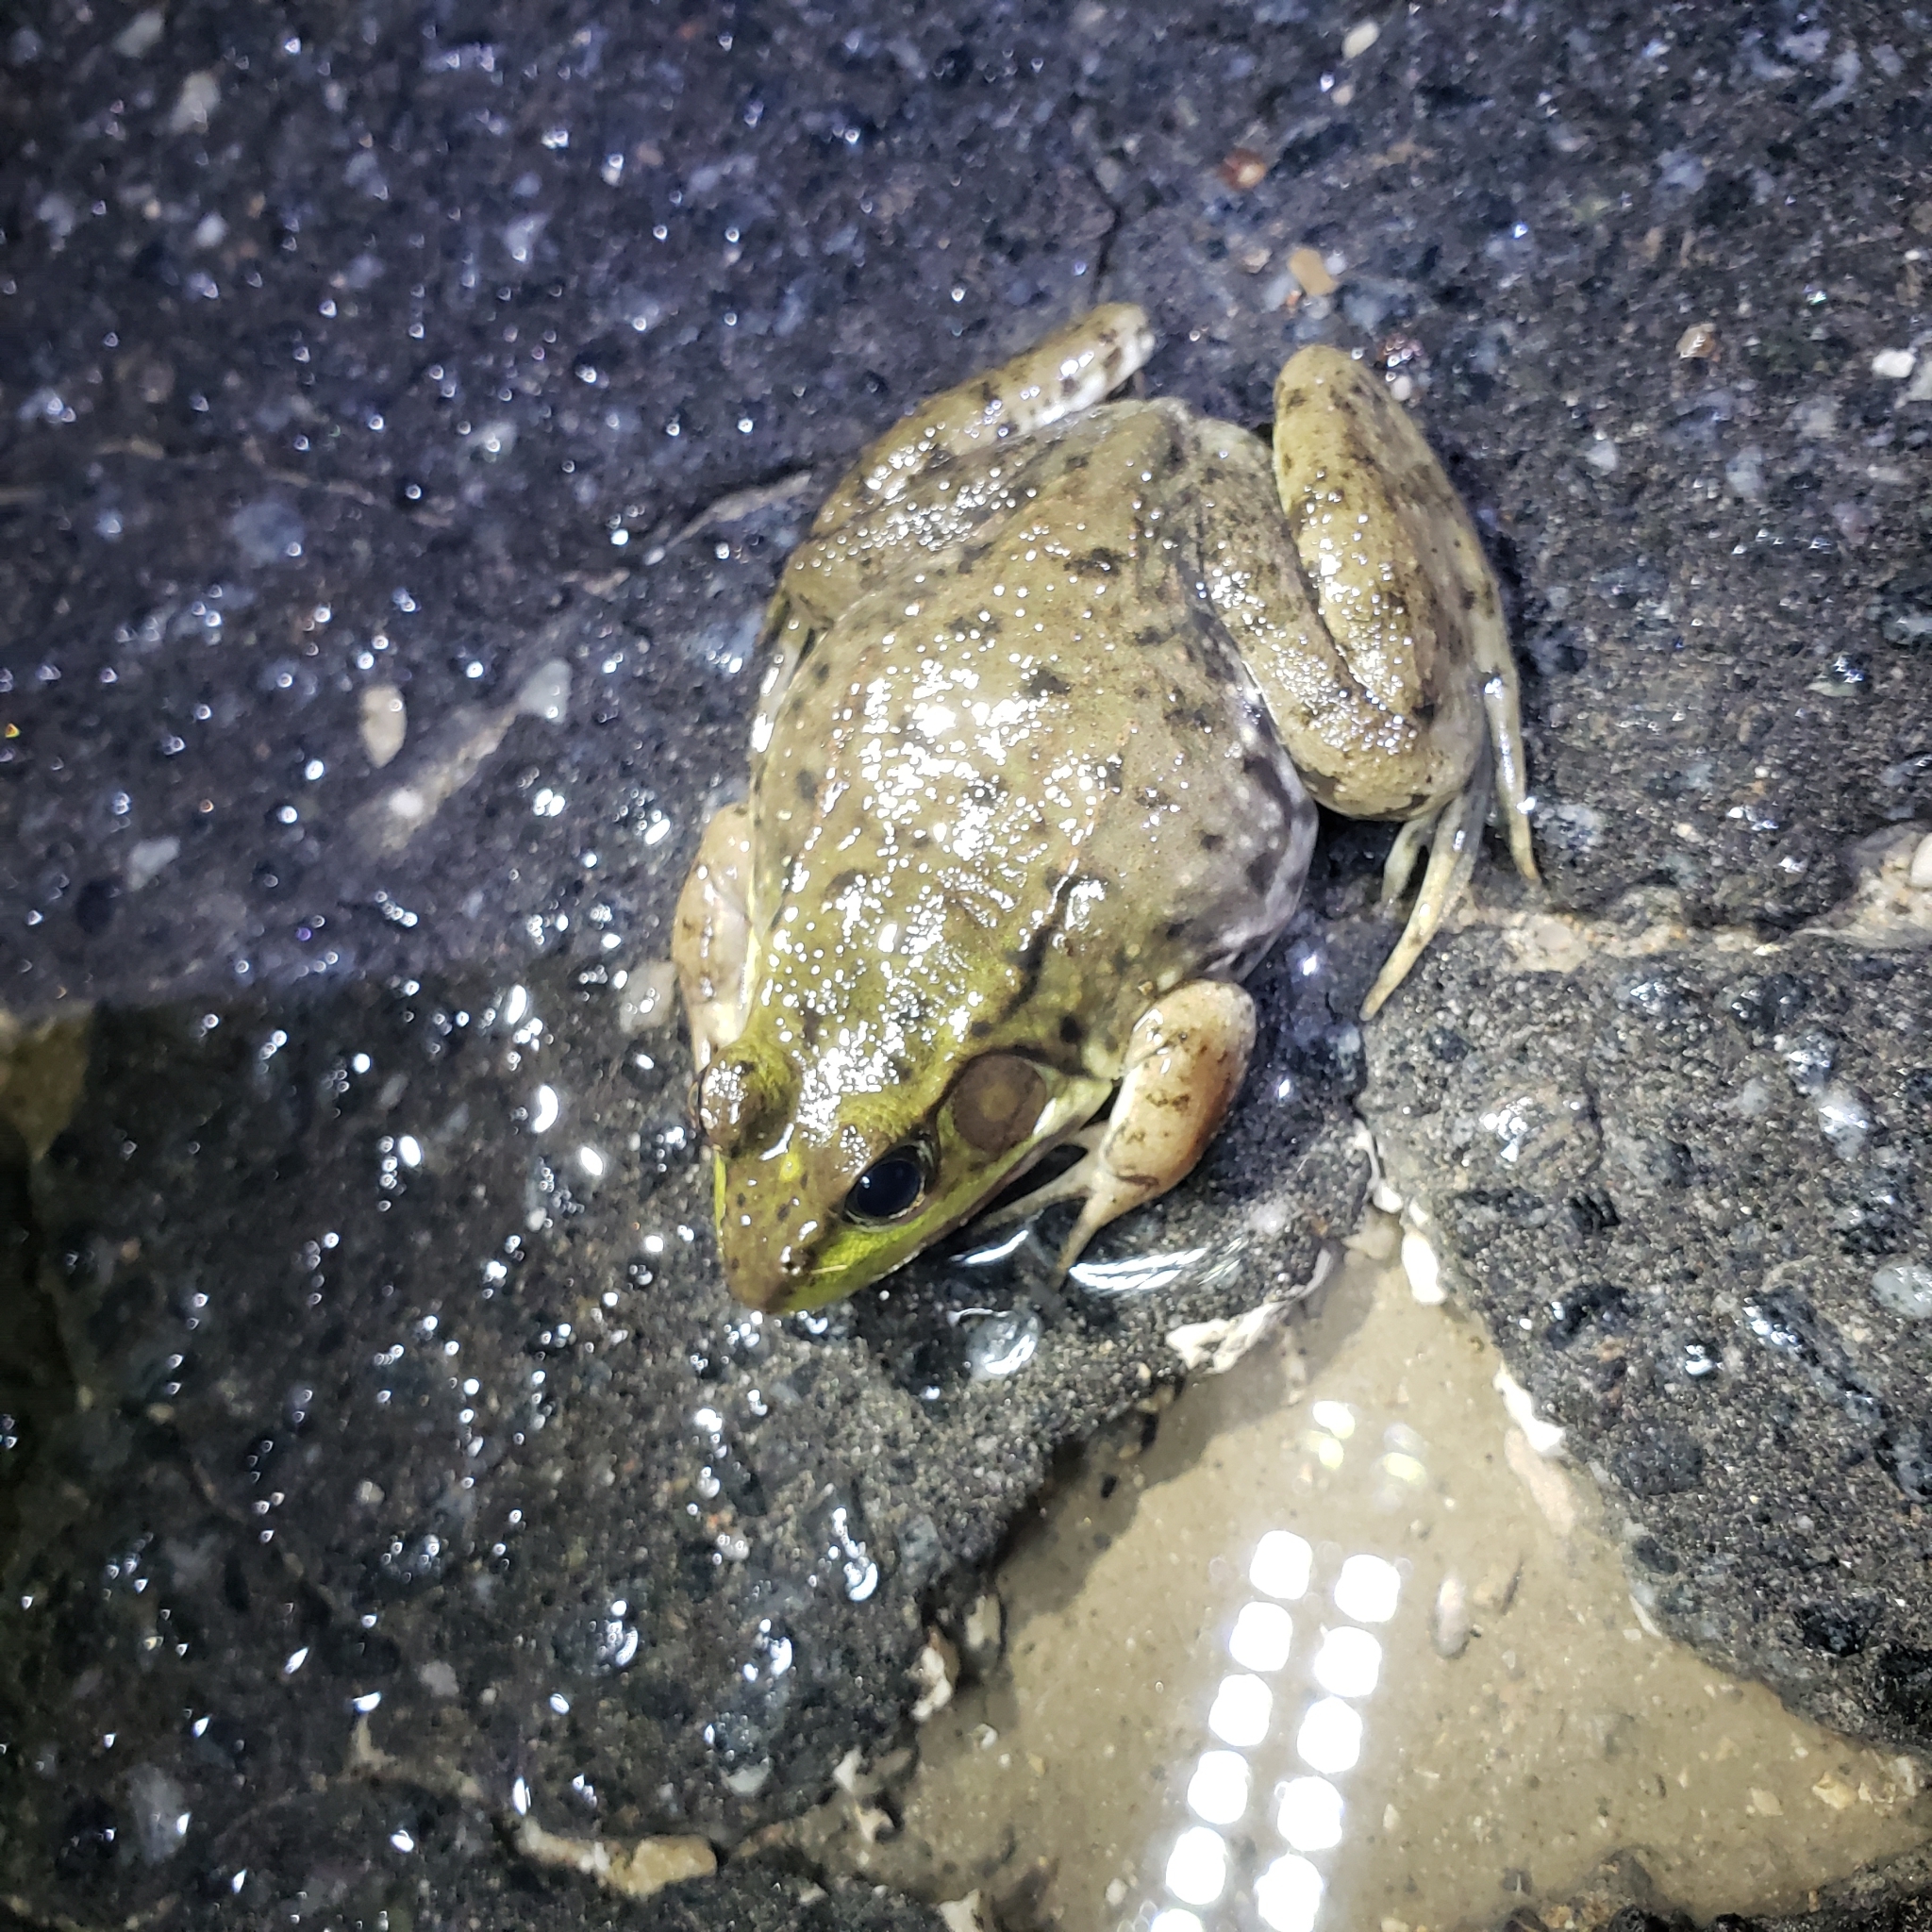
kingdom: Animalia
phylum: Chordata
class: Amphibia
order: Anura
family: Ranidae
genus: Lithobates
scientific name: Lithobates clamitans
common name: Green frog
